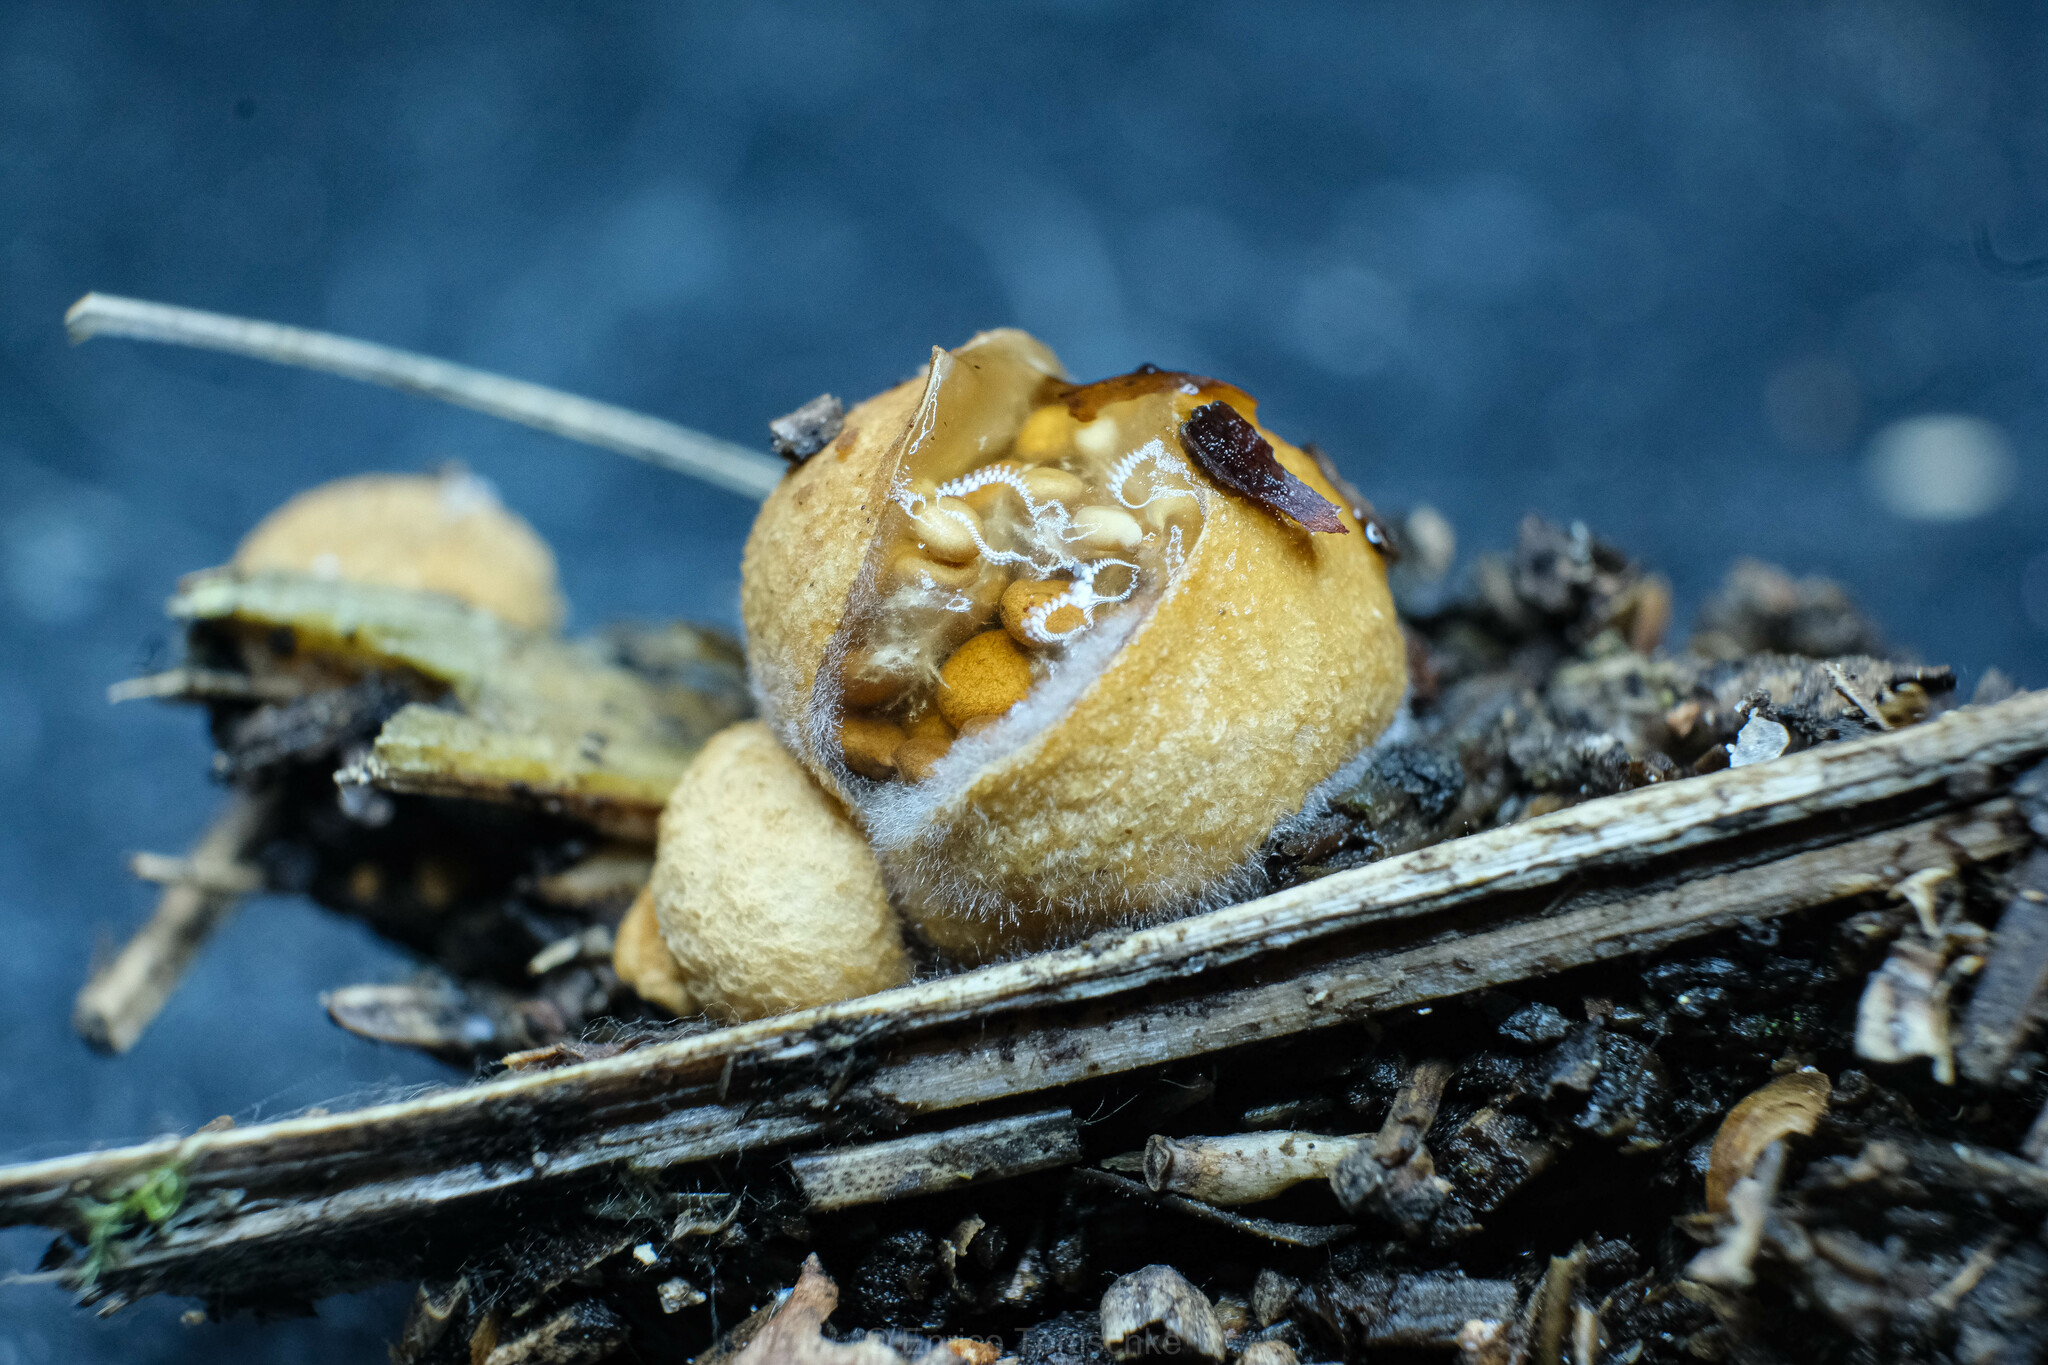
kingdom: Fungi
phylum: Basidiomycota
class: Agaricomycetes
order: Agaricales
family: Agaricaceae
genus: Nidularia
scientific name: Nidularia deformis
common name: Pea-shaped bird's nest
